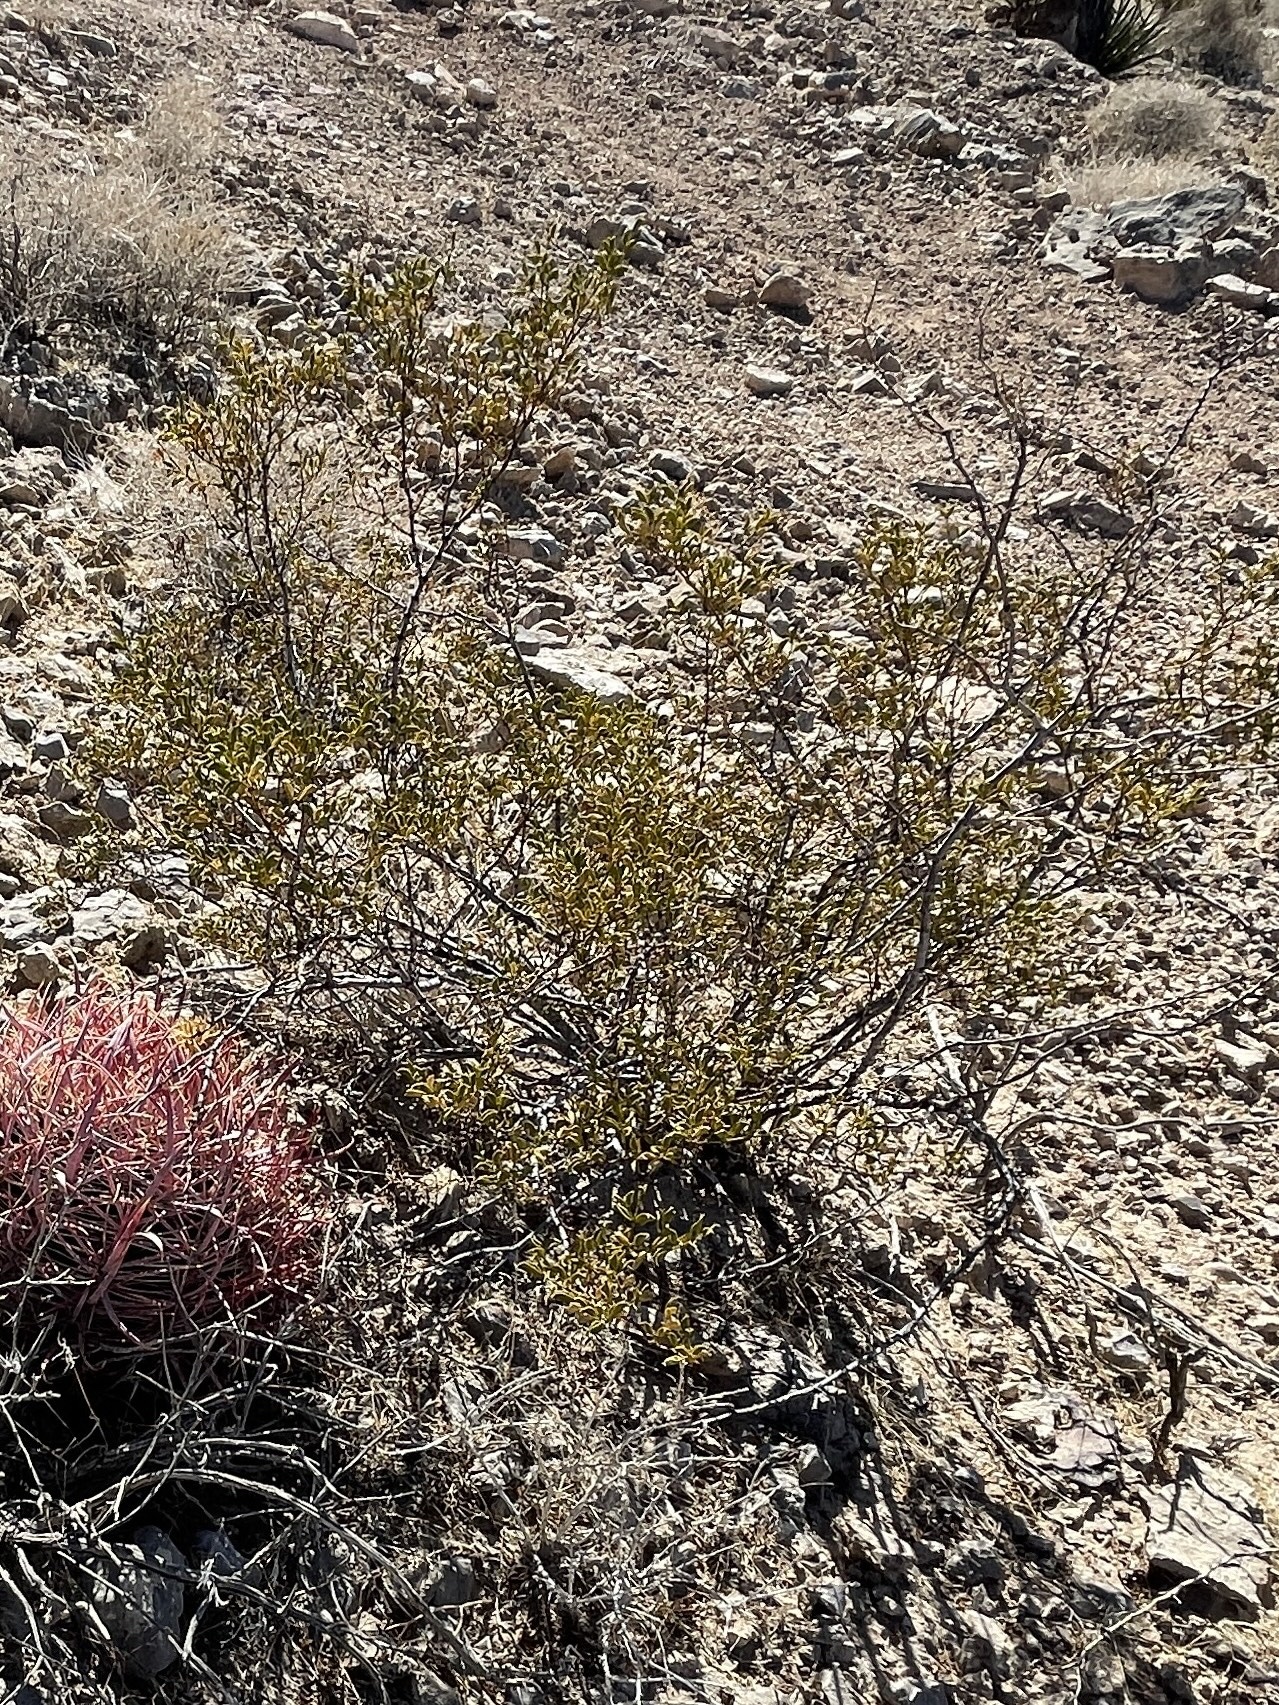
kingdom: Plantae
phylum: Tracheophyta
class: Magnoliopsida
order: Zygophyllales
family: Zygophyllaceae
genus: Larrea
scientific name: Larrea tridentata
